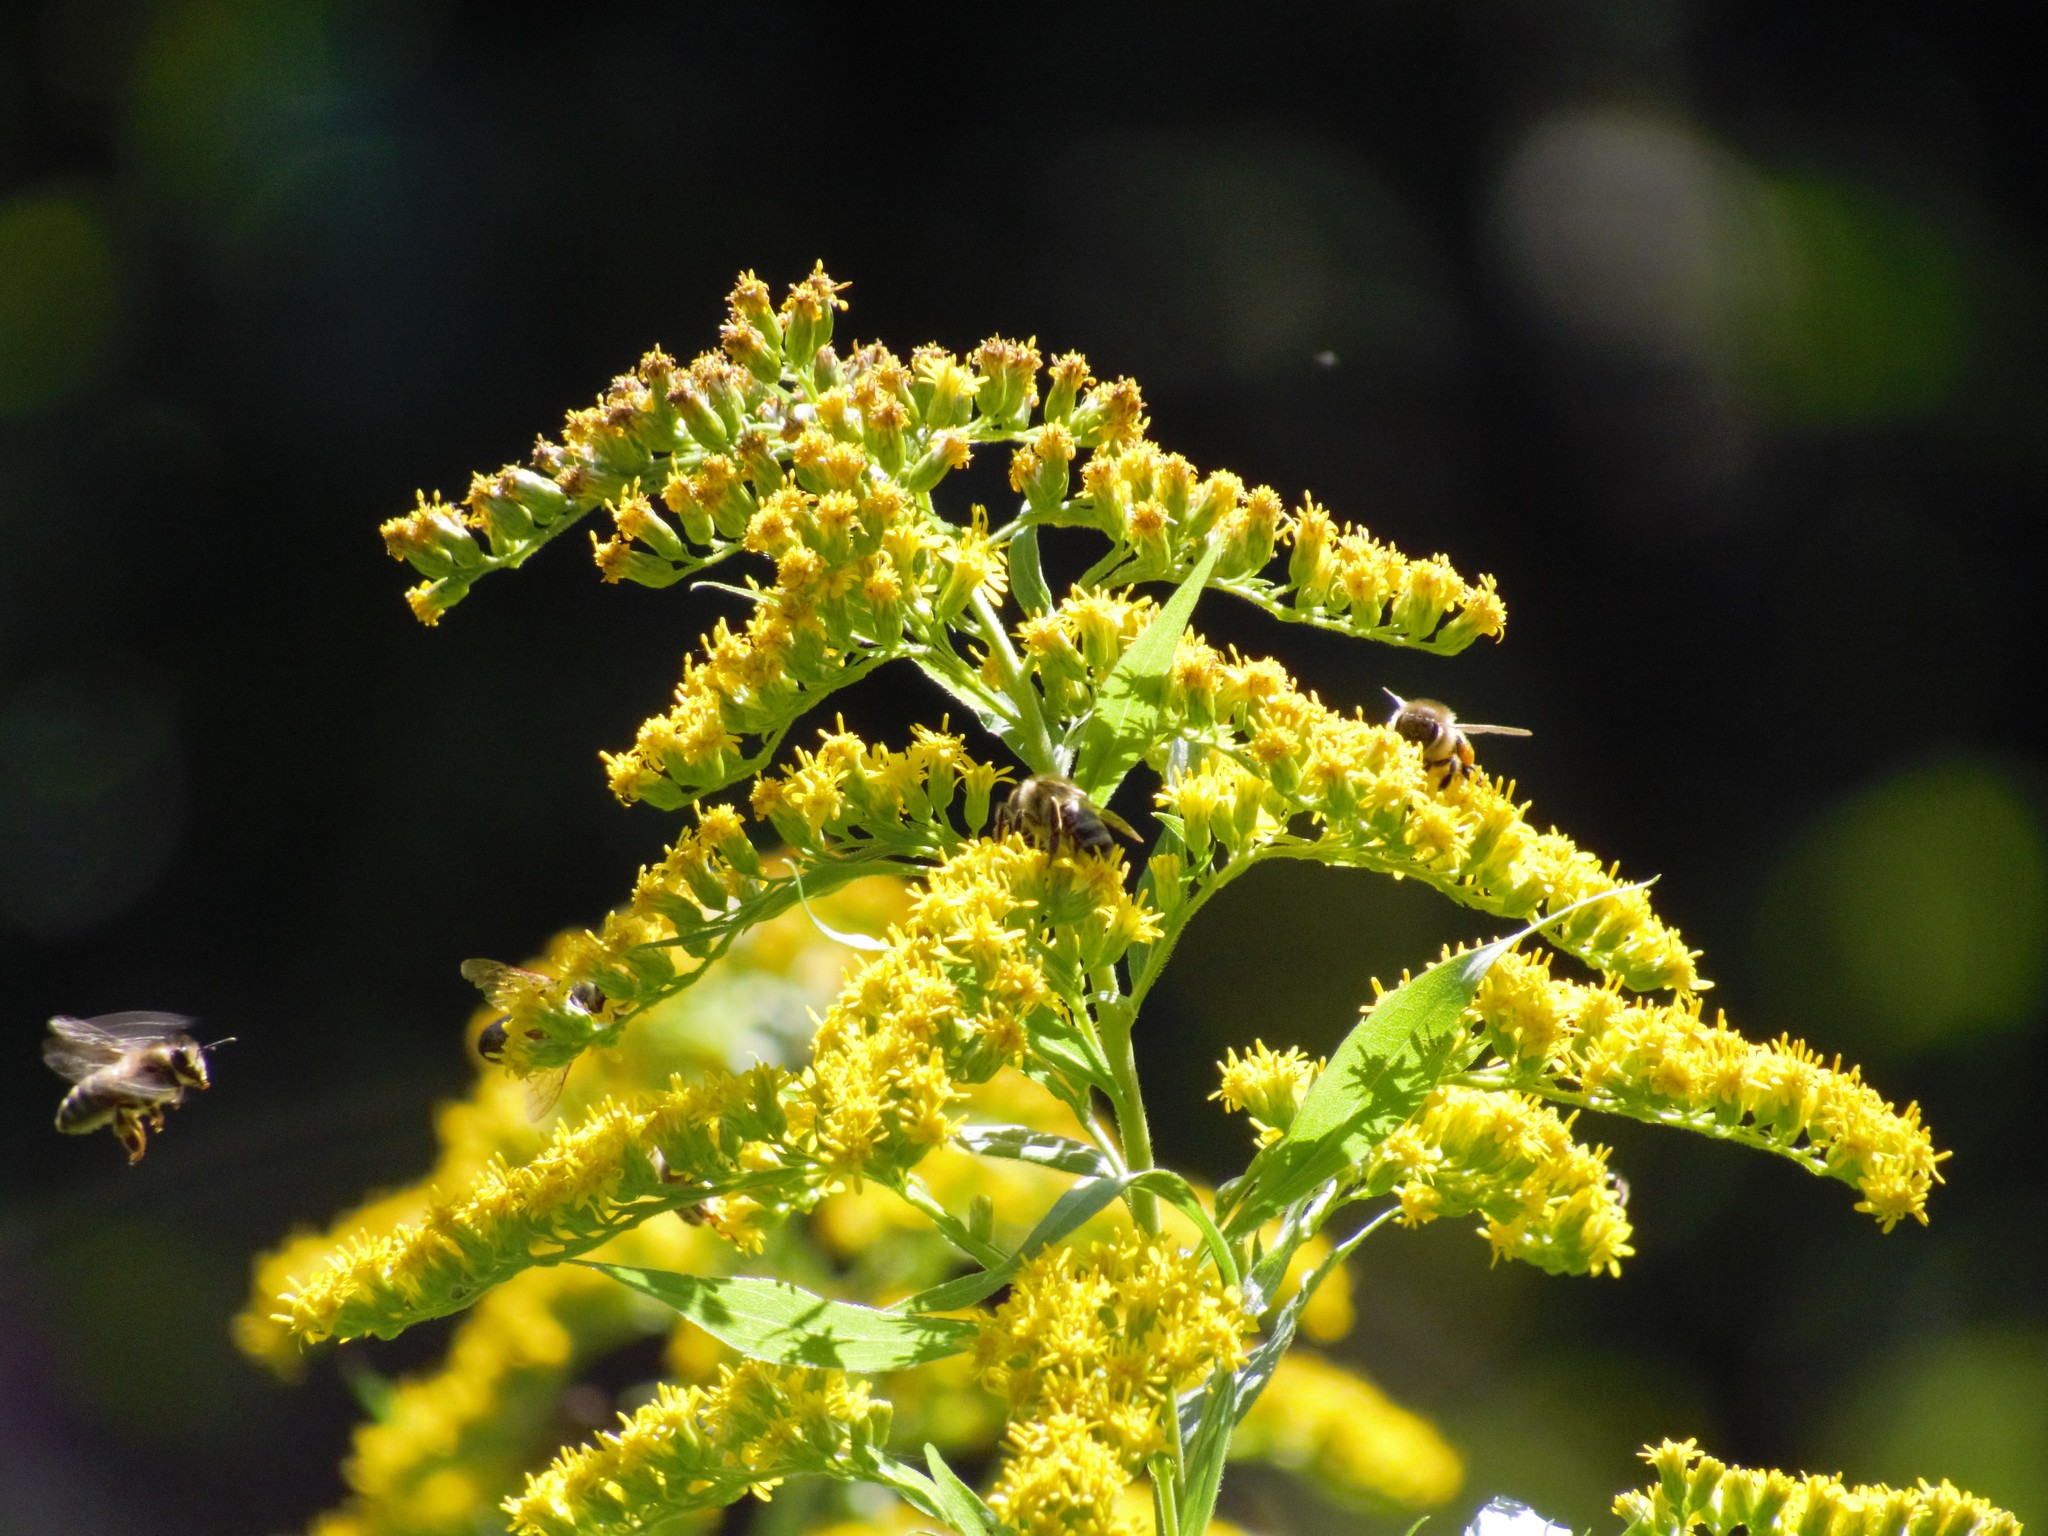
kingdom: Plantae
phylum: Tracheophyta
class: Magnoliopsida
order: Asterales
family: Asteraceae
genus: Solidago
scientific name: Solidago canadensis
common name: Canada goldenrod
